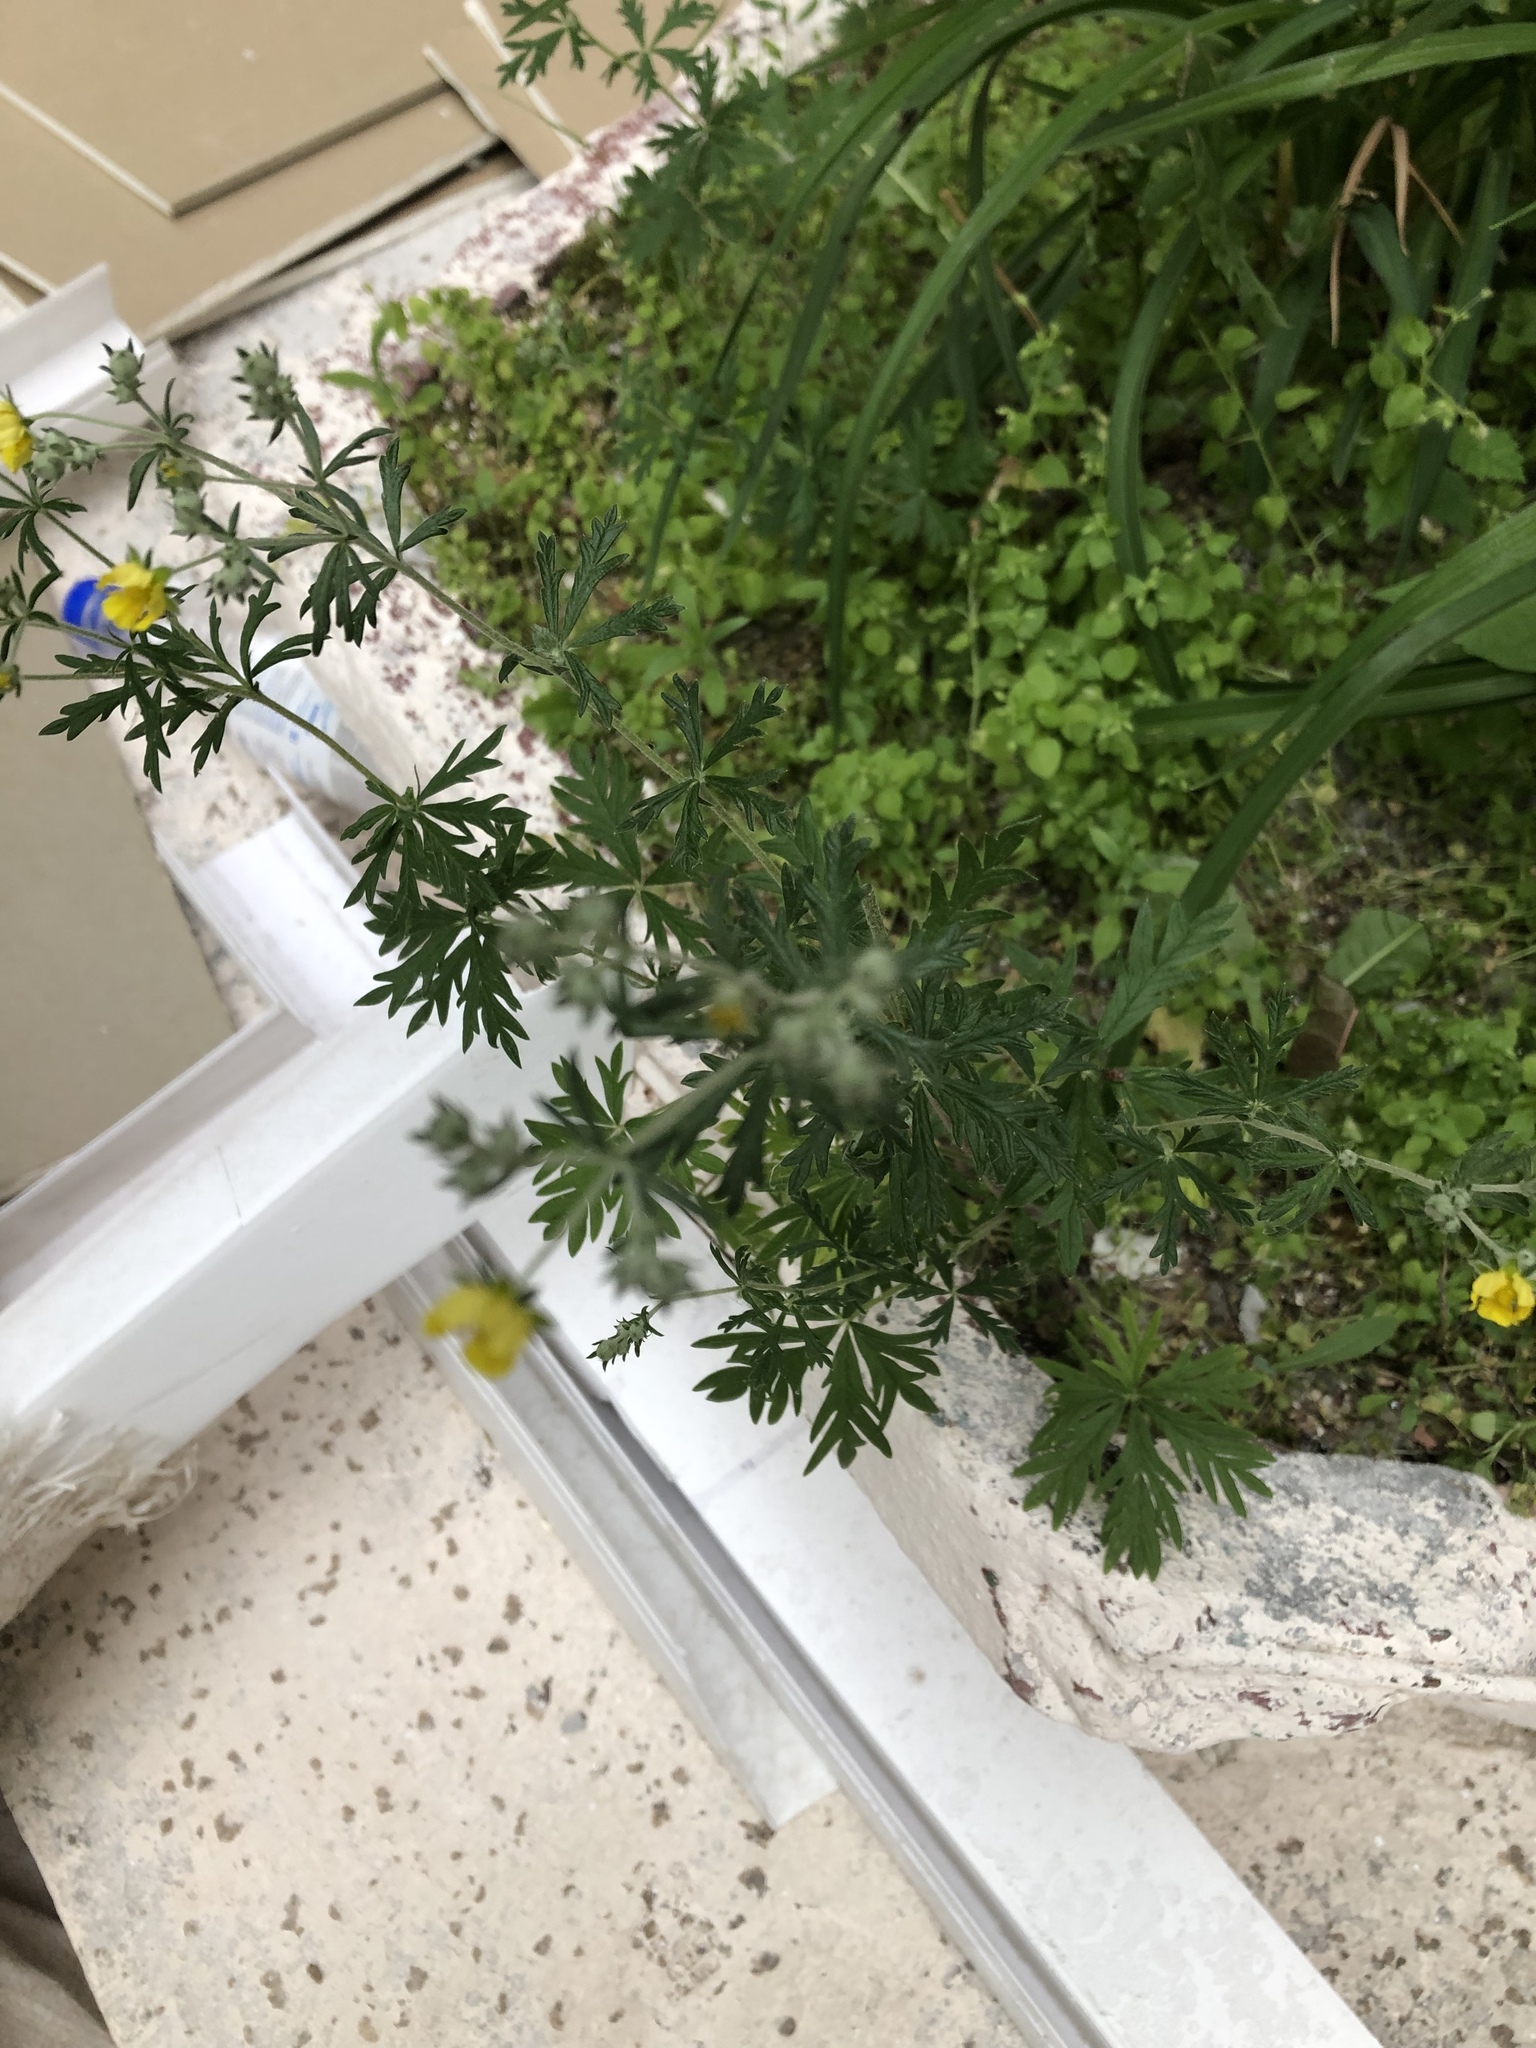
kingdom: Plantae
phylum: Tracheophyta
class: Magnoliopsida
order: Rosales
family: Rosaceae
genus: Potentilla
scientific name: Potentilla argentea
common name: Hoary cinquefoil
